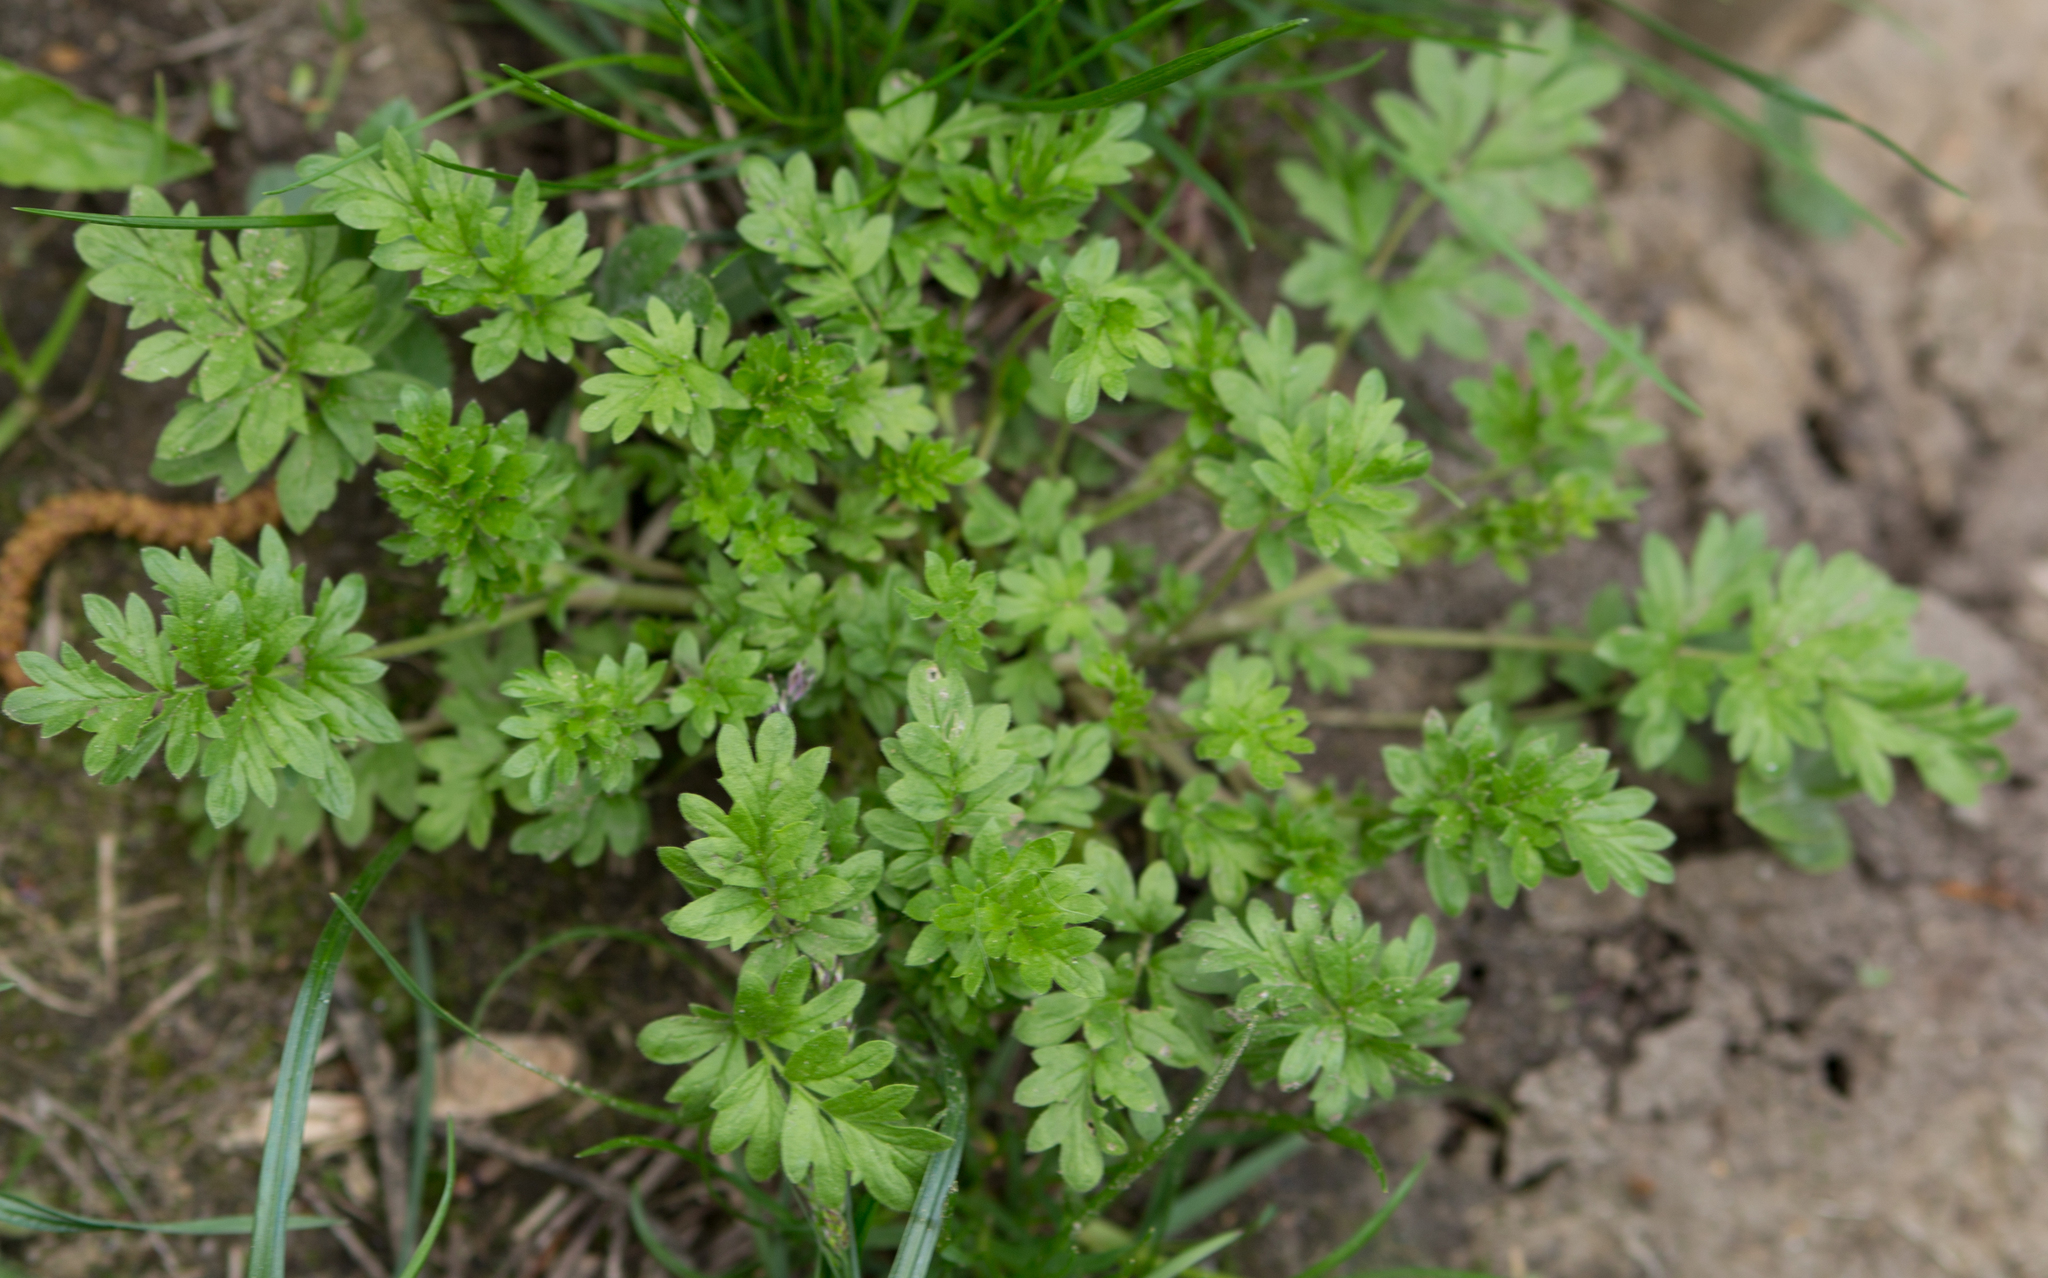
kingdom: Plantae
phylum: Tracheophyta
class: Magnoliopsida
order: Rosales
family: Rosaceae
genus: Potentilla
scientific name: Potentilla supina
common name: Prostrate cinquefoil
